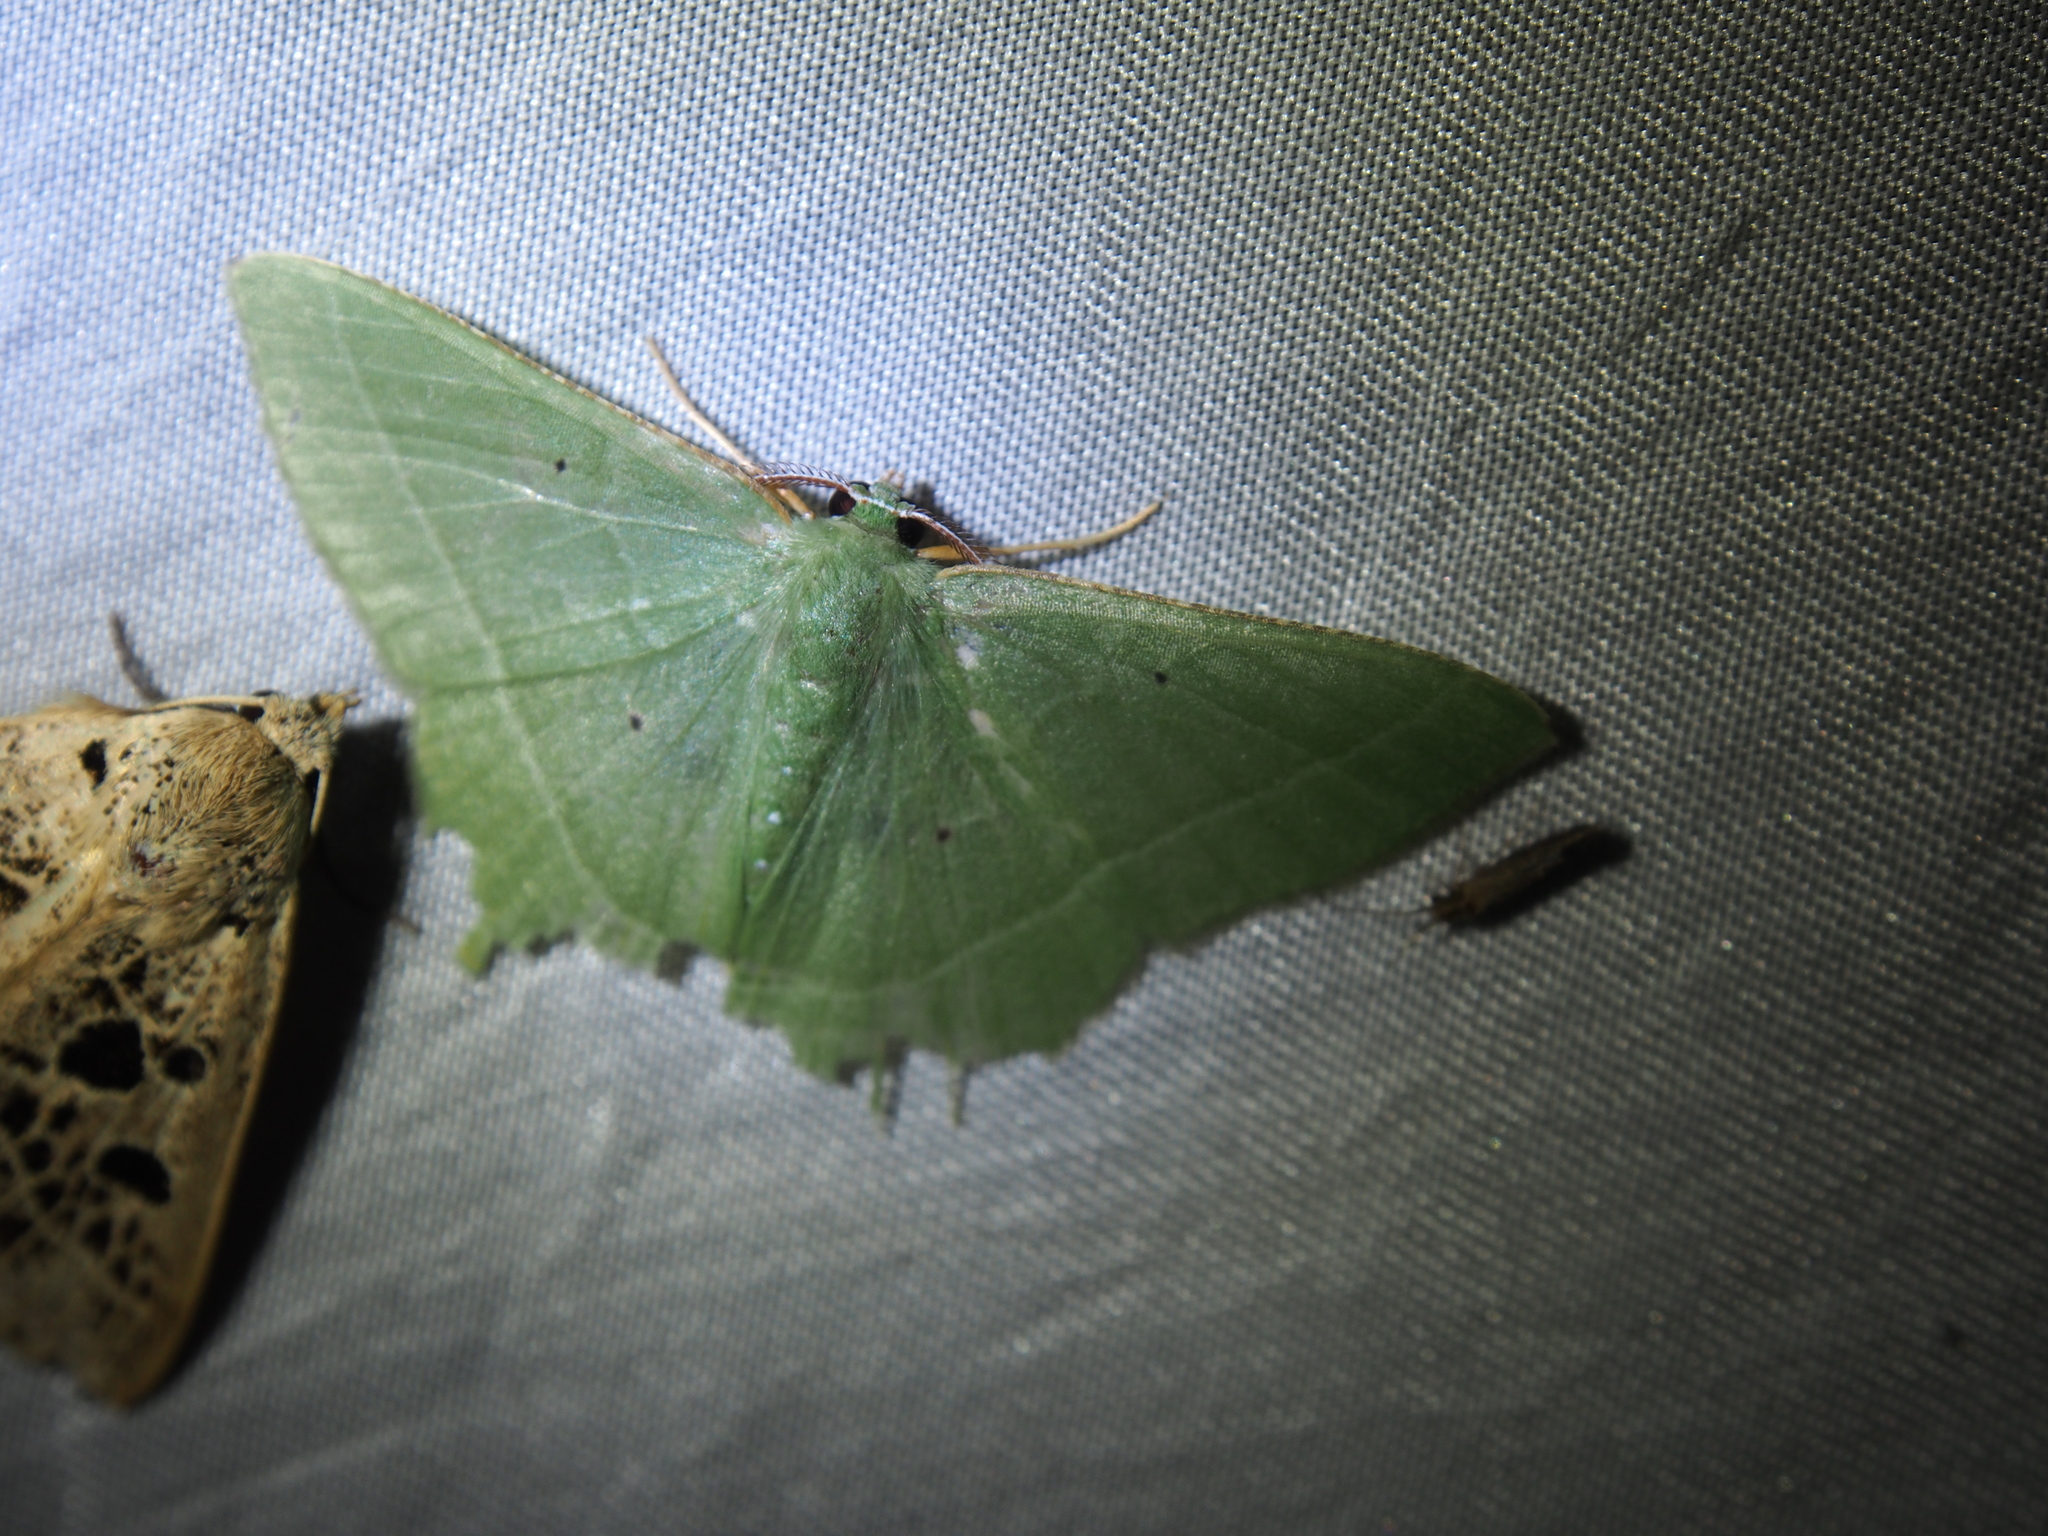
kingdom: Animalia
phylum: Arthropoda
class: Insecta
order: Lepidoptera
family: Geometridae
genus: Phrudocentra
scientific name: Phrudocentra pupillata
